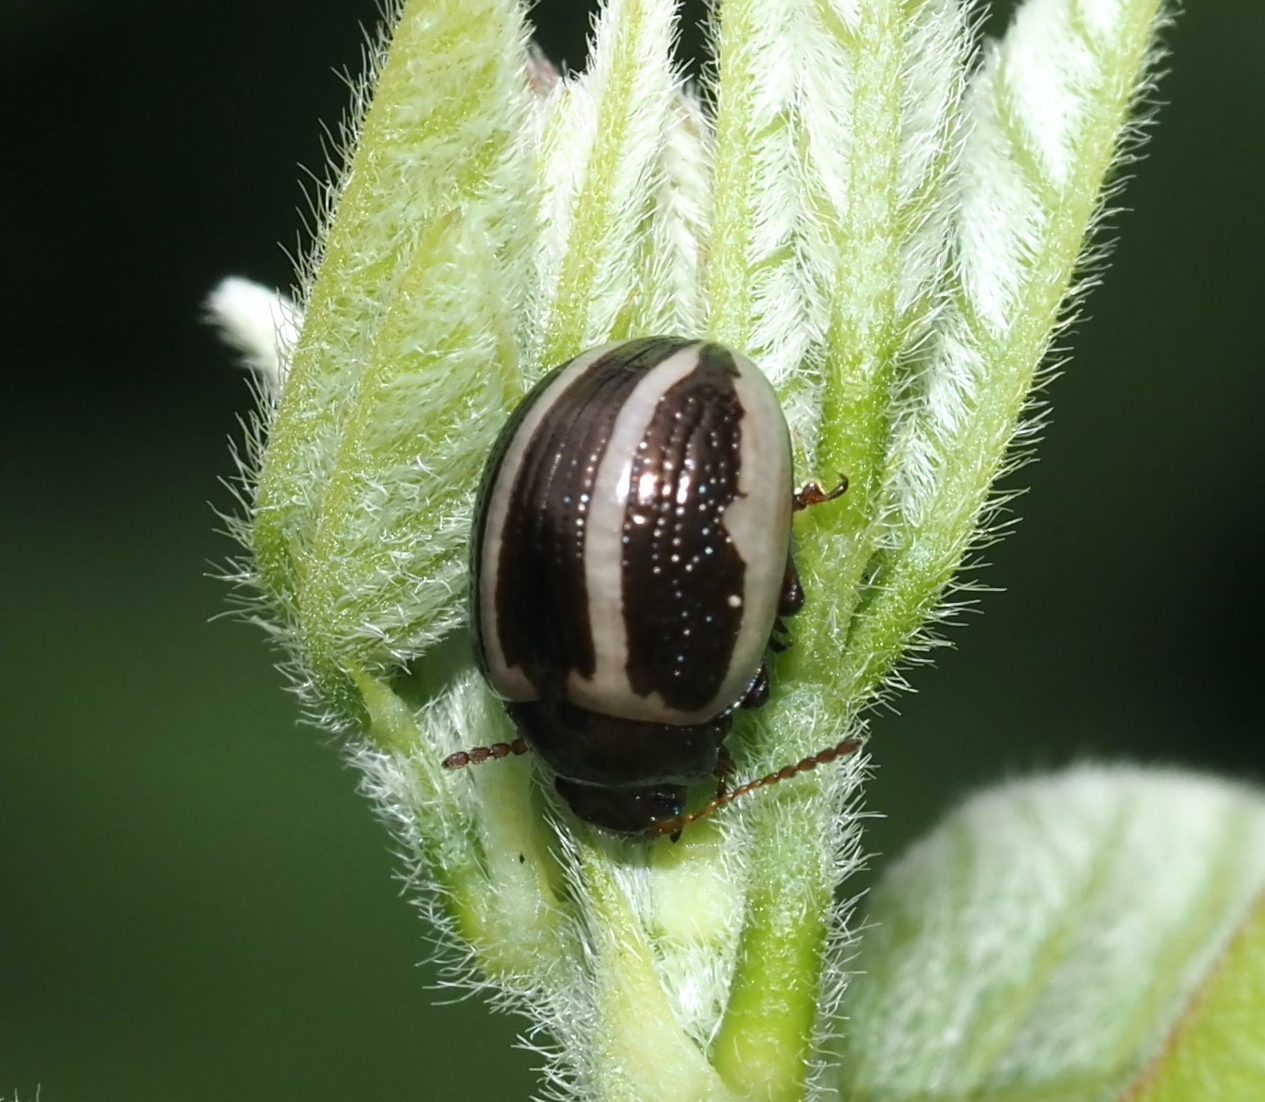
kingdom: Animalia
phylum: Arthropoda
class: Insecta
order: Coleoptera
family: Chrysomelidae
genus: Calligrapha
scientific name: Calligrapha bidenticola
